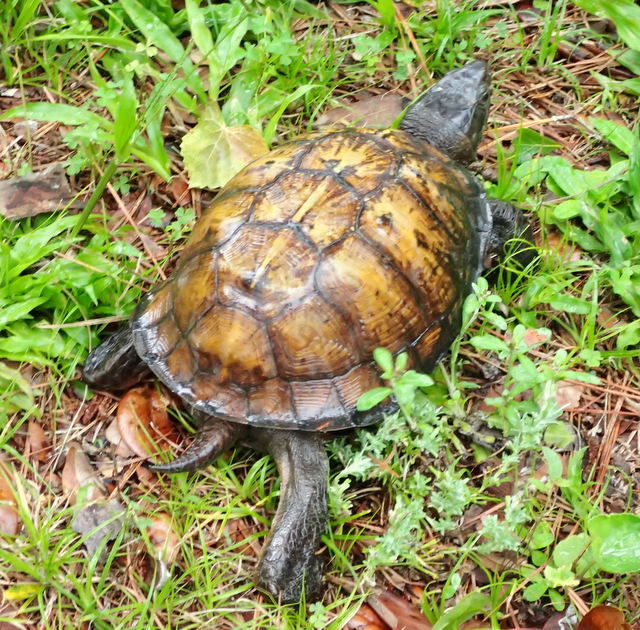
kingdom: Animalia
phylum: Chordata
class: Testudines
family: Emydidae
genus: Terrapene
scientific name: Terrapene carolina
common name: Common box turtle
